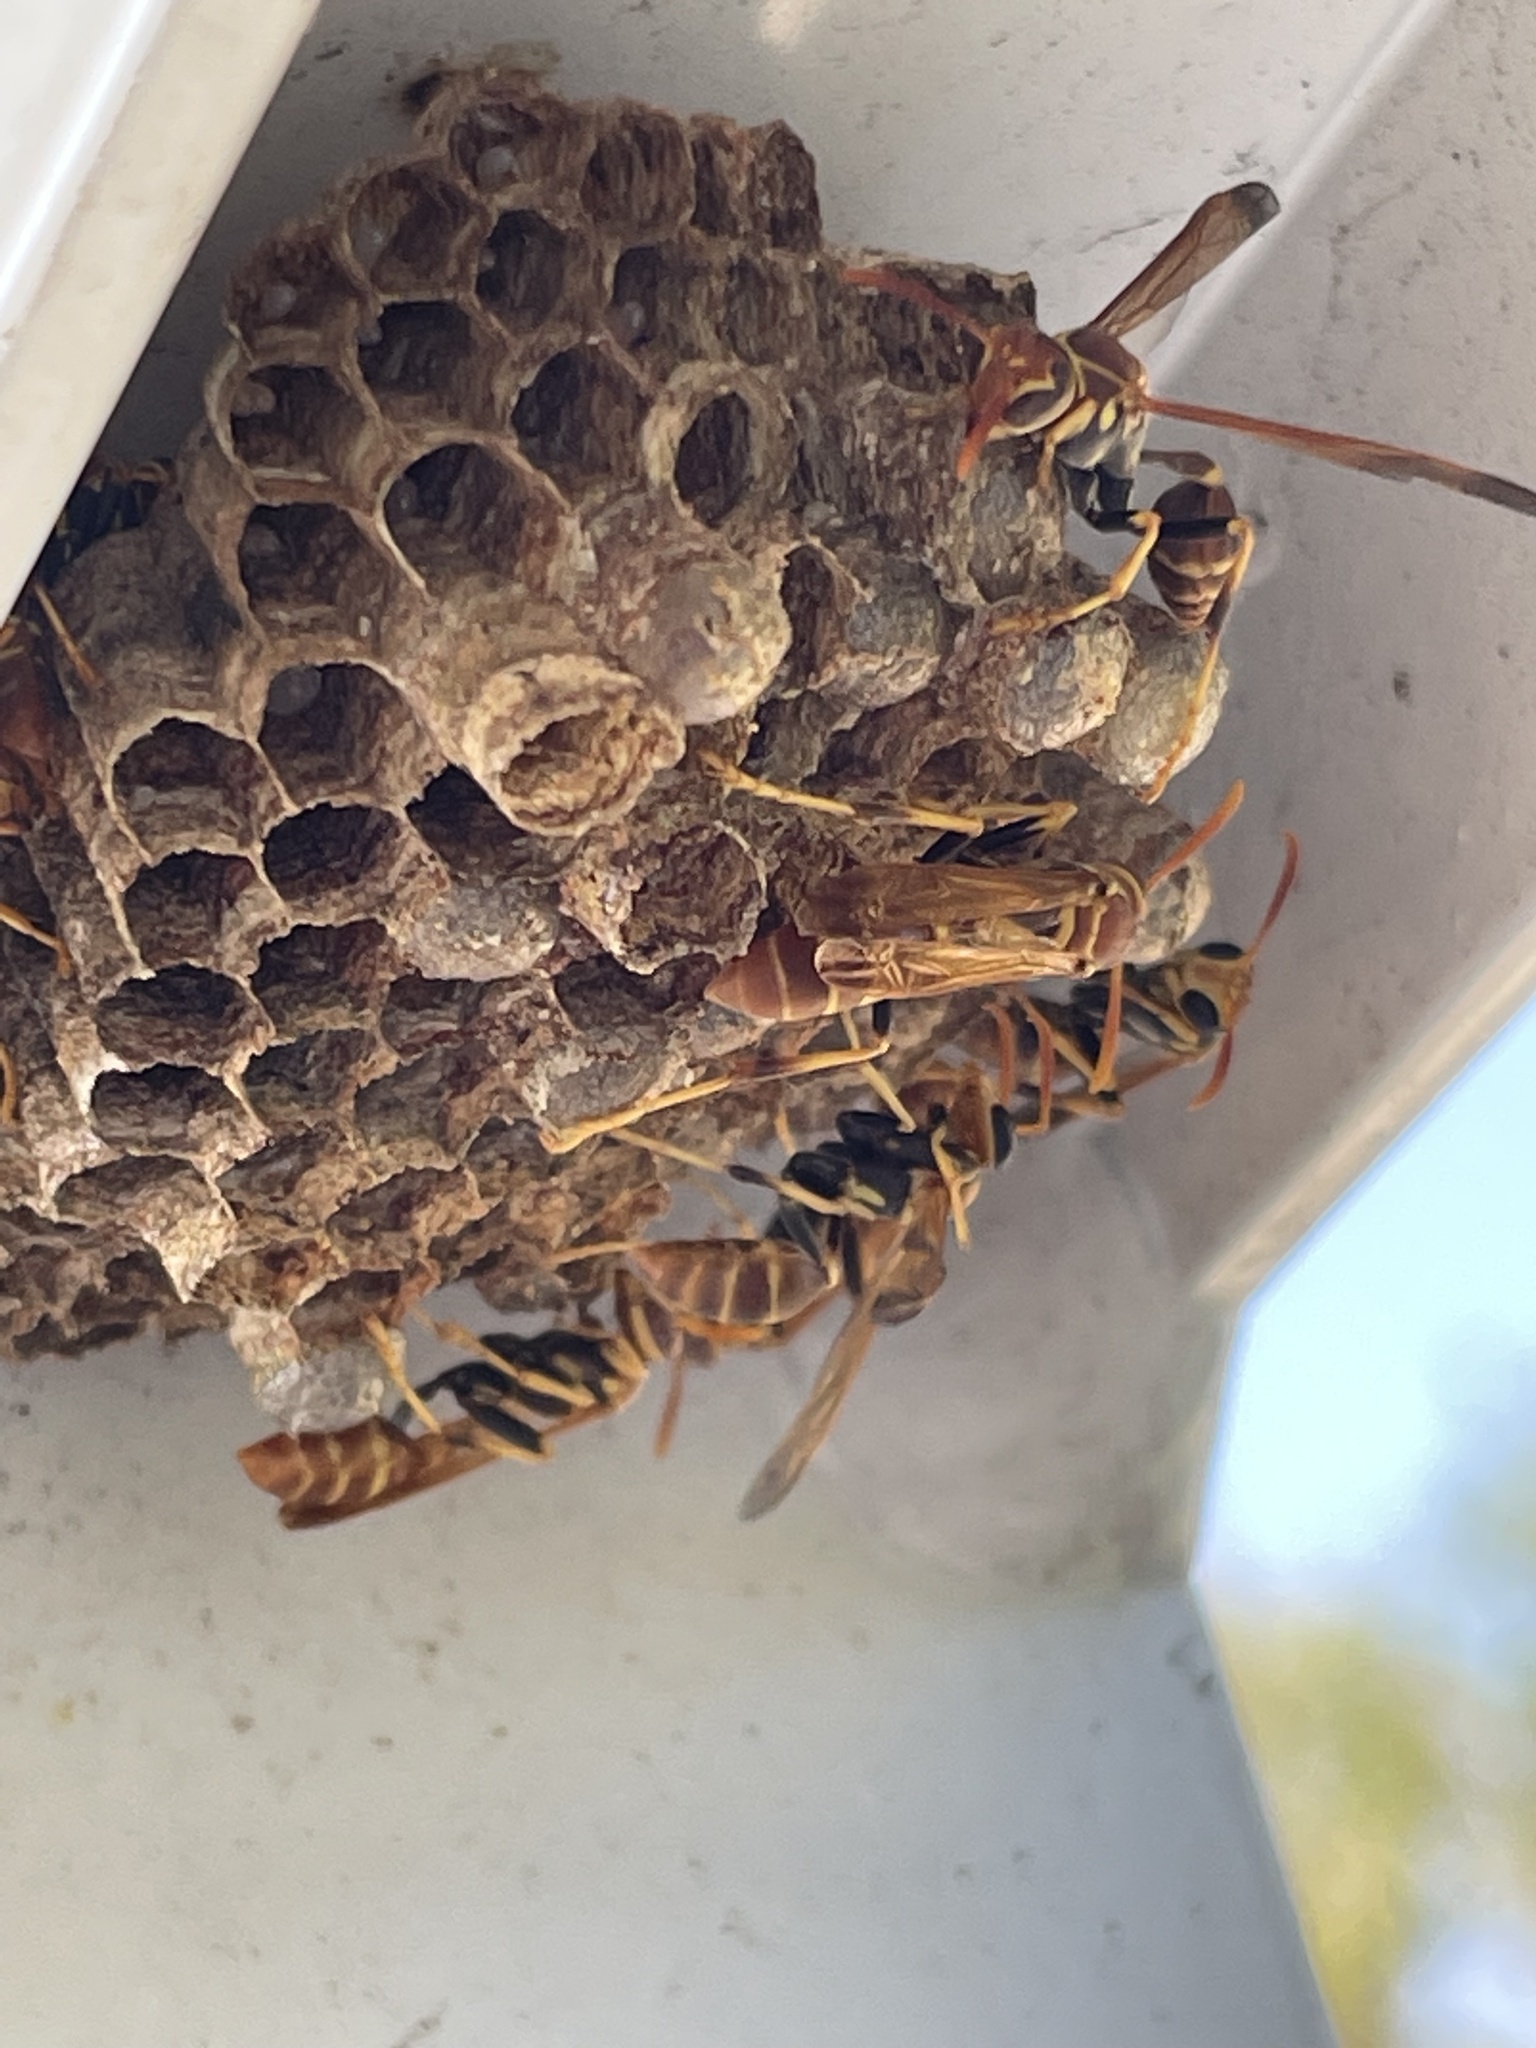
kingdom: Animalia
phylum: Arthropoda
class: Insecta
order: Hymenoptera
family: Vespidae
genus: Mischocyttarus
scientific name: Mischocyttarus mexicanus
